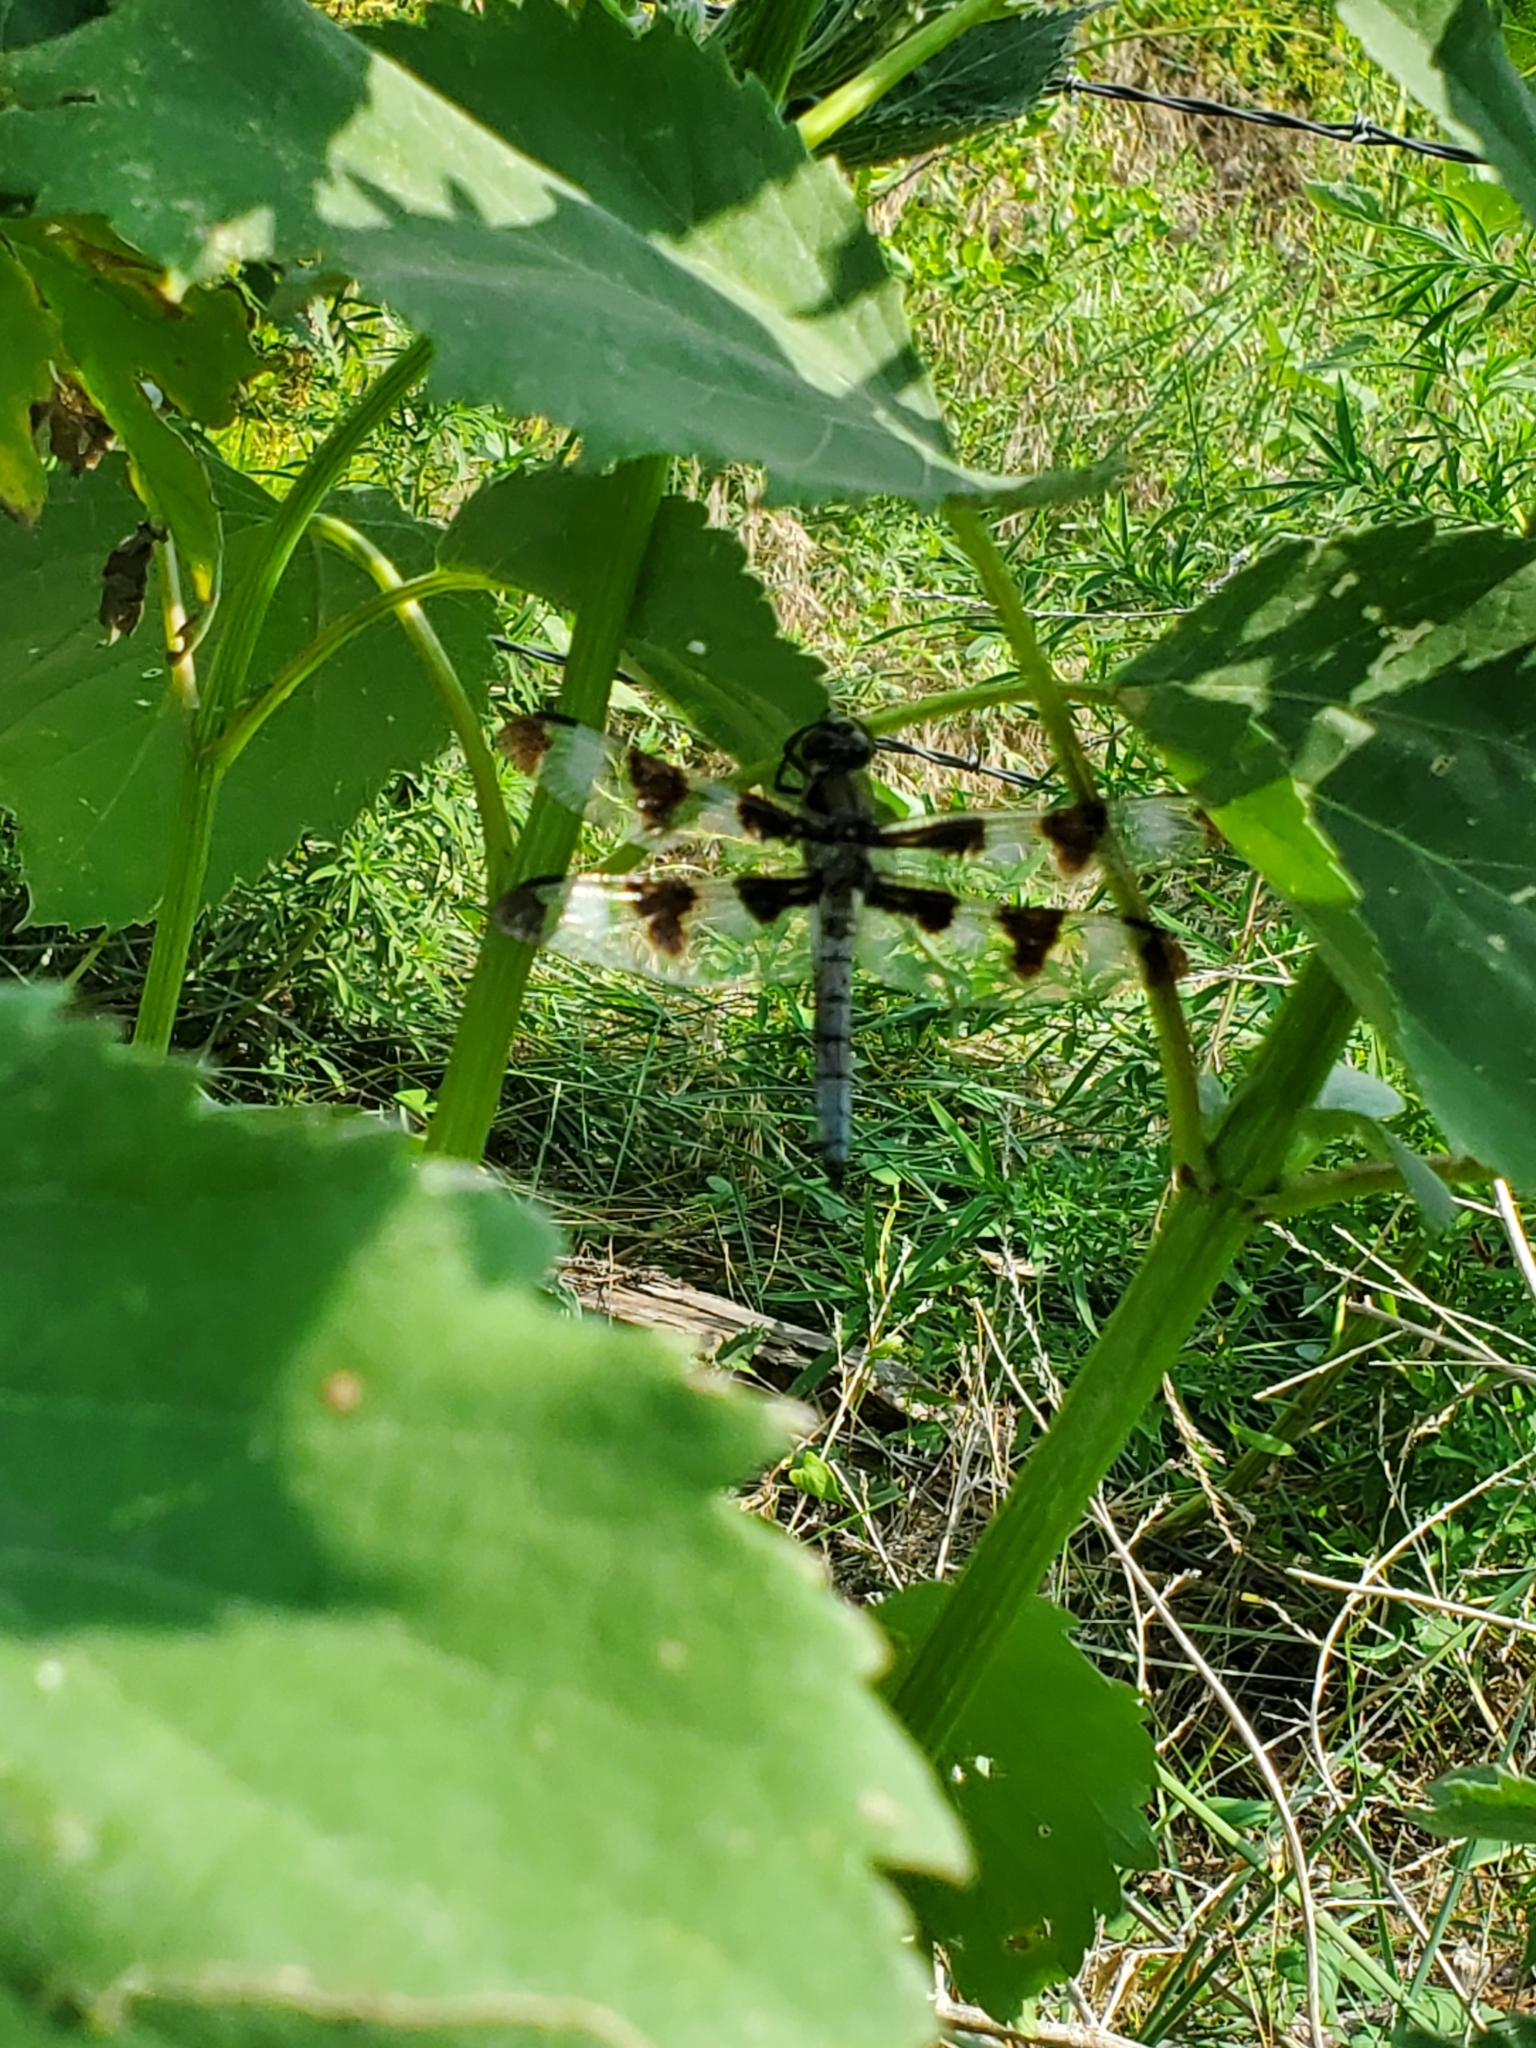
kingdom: Animalia
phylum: Arthropoda
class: Insecta
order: Odonata
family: Libellulidae
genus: Libellula
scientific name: Libellula pulchella
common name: Twelve-spotted skimmer
